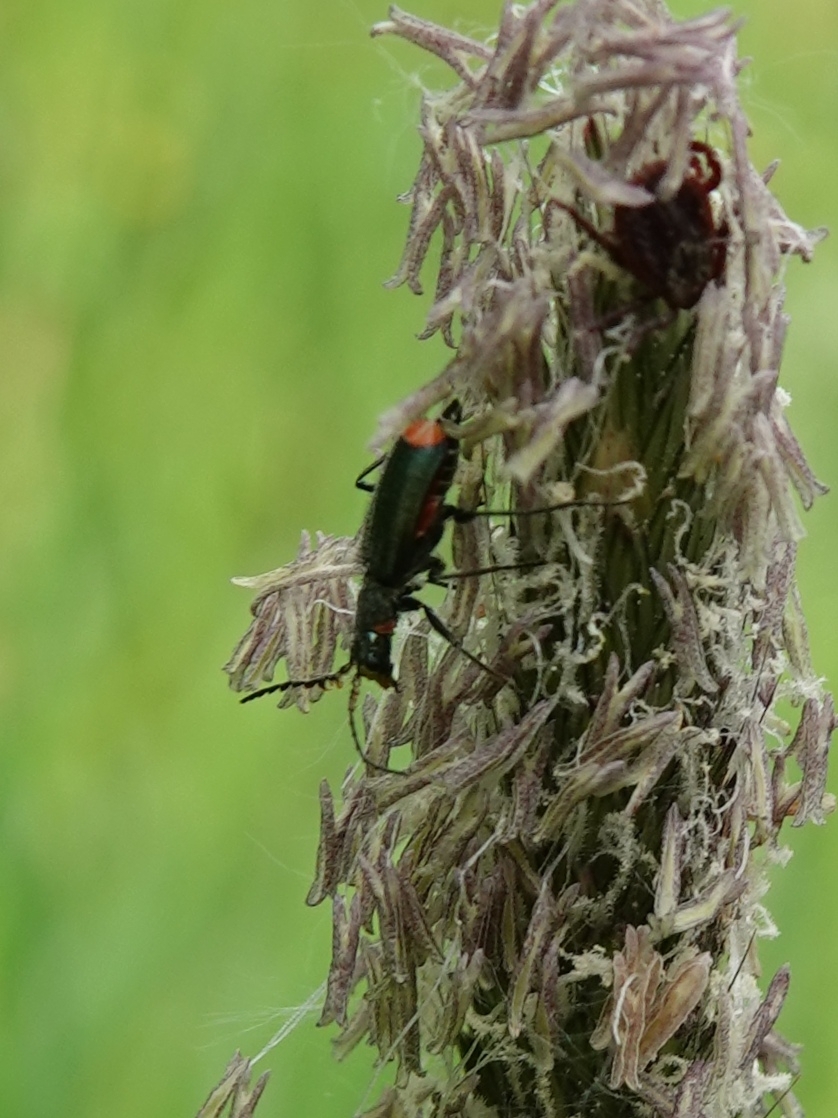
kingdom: Animalia
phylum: Arthropoda
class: Insecta
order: Coleoptera
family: Melyridae
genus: Malachius
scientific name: Malachius bipustulatus
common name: Malachite beetle
